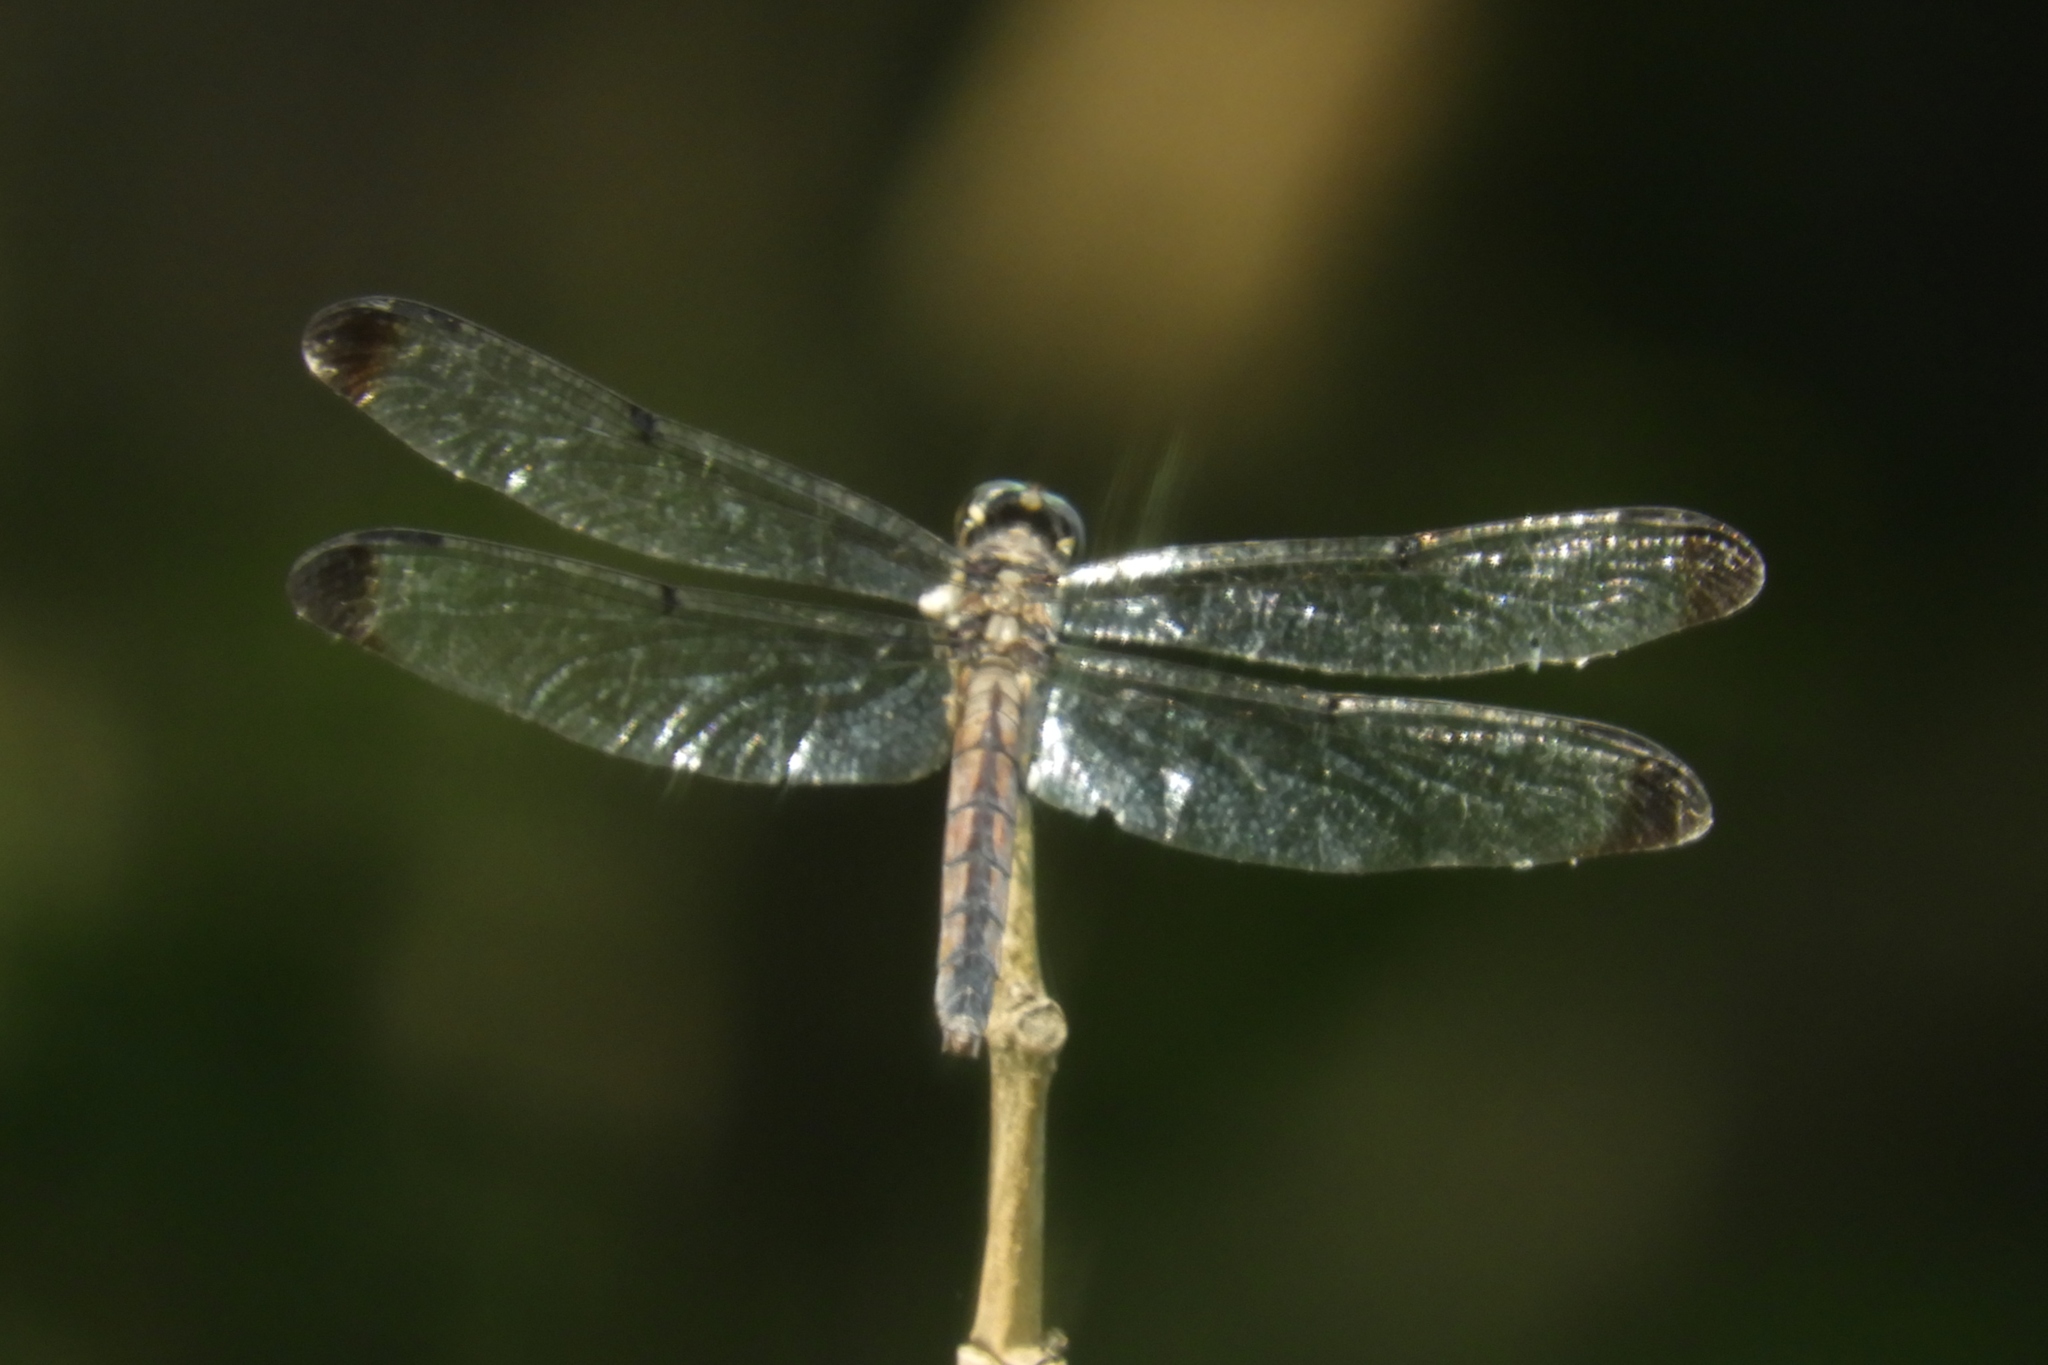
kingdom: Animalia
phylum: Arthropoda
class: Insecta
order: Odonata
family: Libellulidae
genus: Libellula
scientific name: Libellula vibrans
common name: Great blue skimmer
